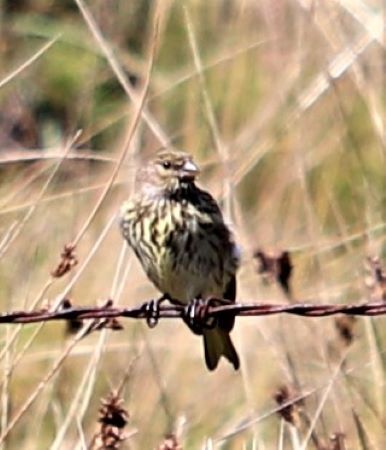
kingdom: Animalia
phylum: Chordata
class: Aves
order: Passeriformes
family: Fringillidae
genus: Crithagra
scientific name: Crithagra symonsi
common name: Drakensberg siskin
